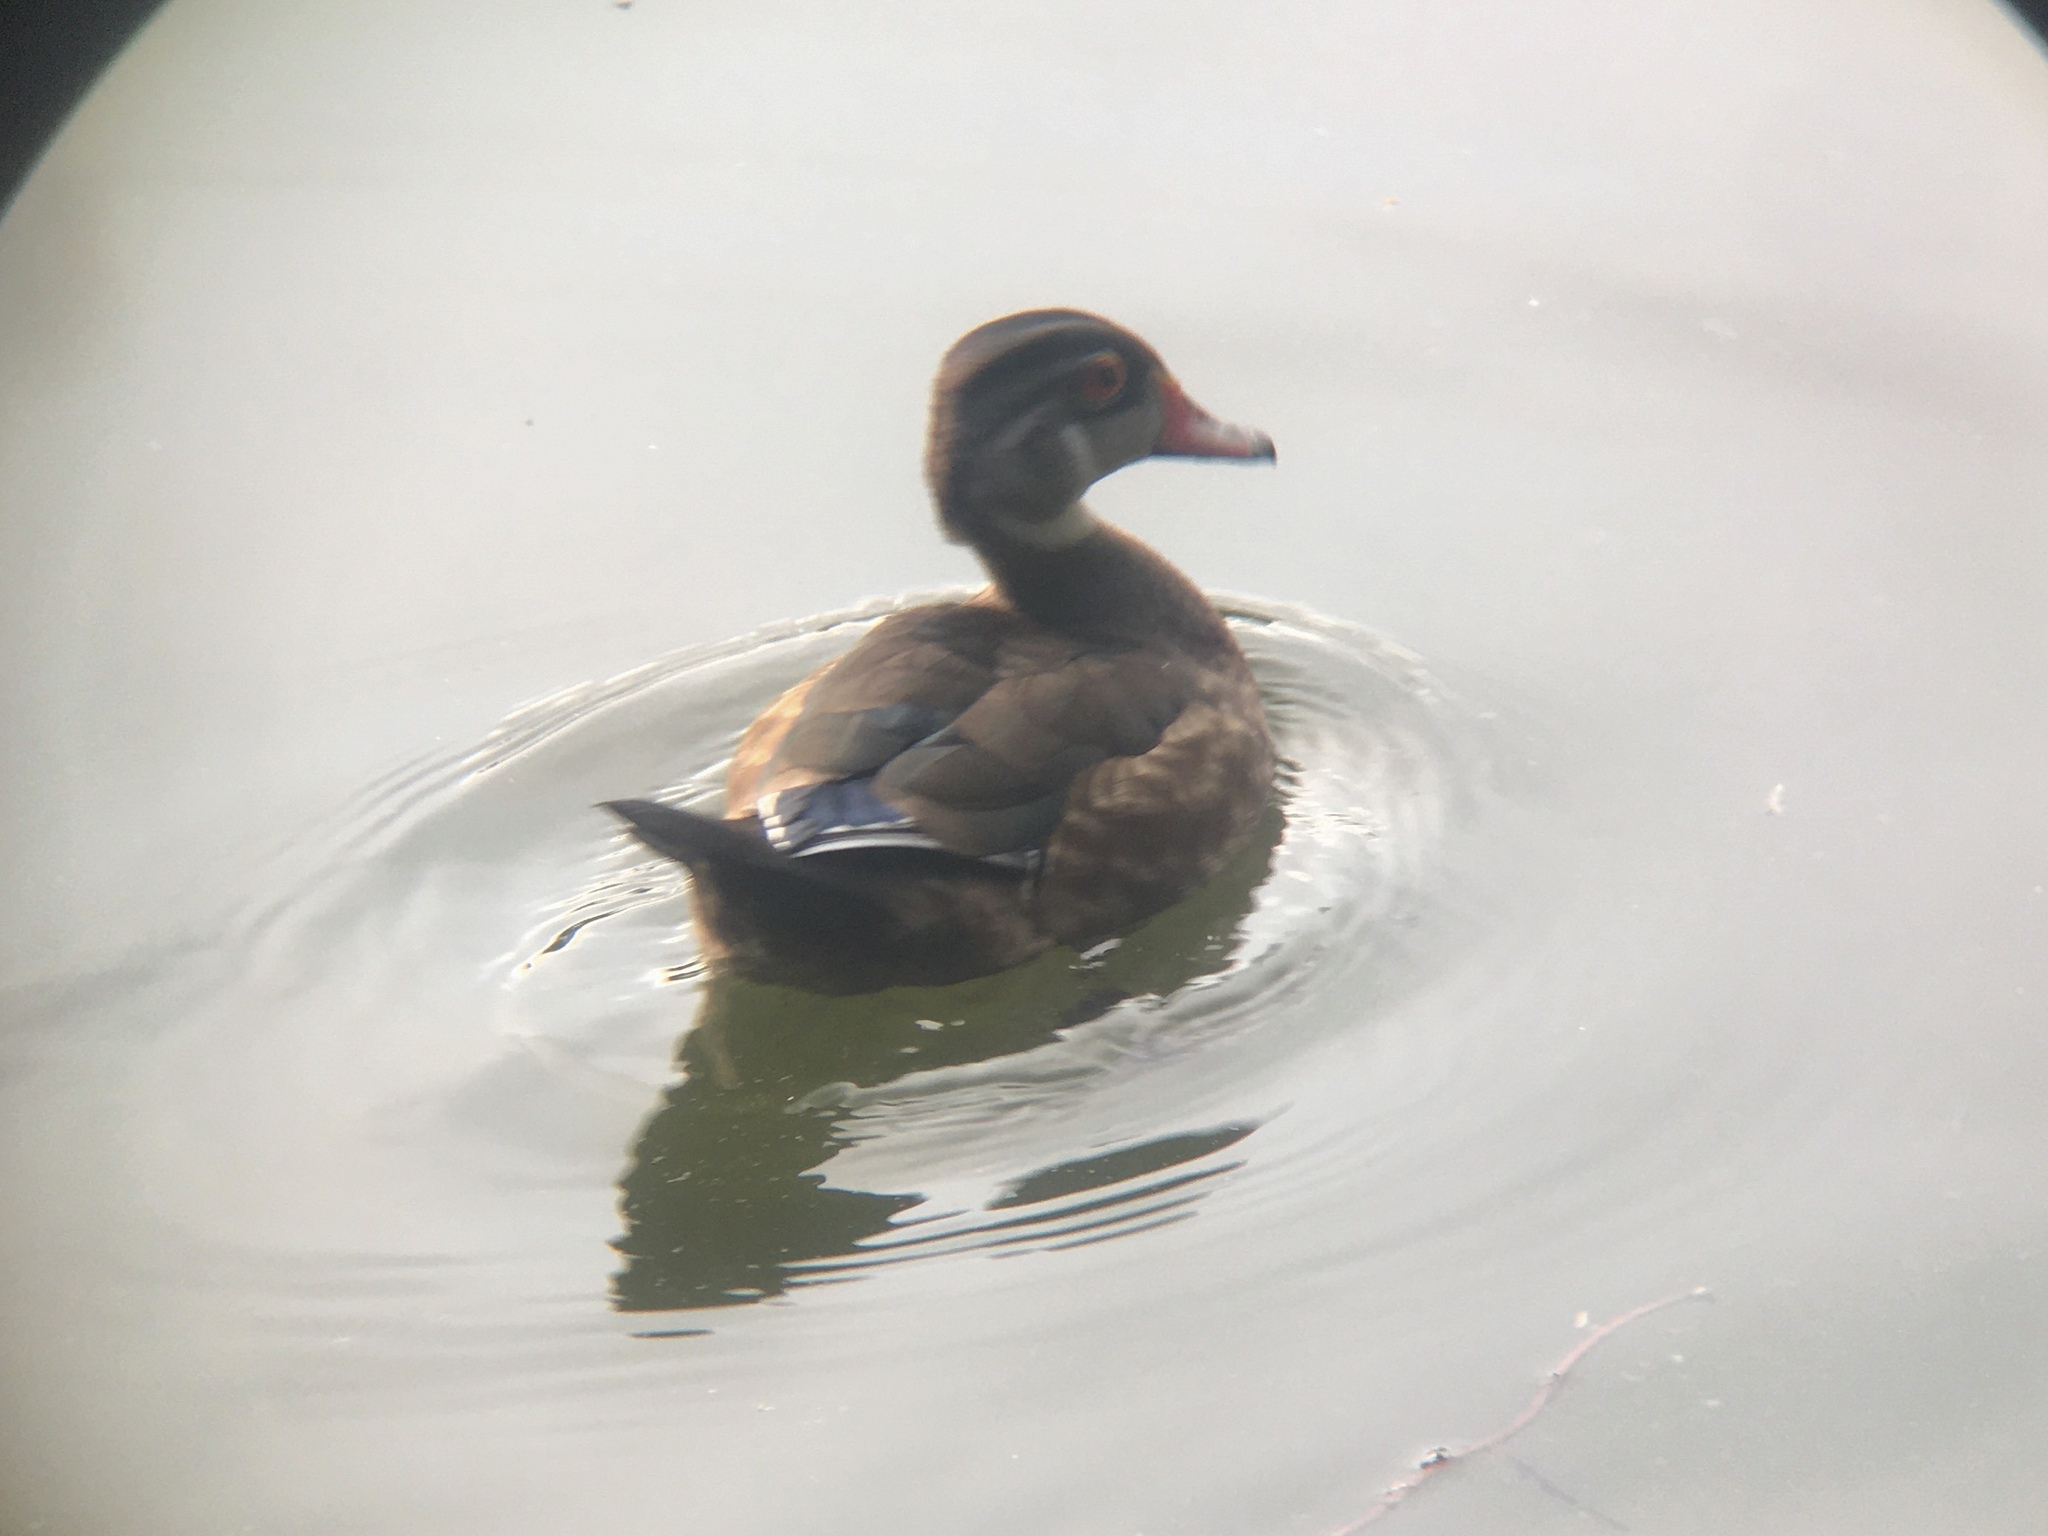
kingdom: Animalia
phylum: Chordata
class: Aves
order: Anseriformes
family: Anatidae
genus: Aix
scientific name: Aix sponsa
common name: Wood duck
